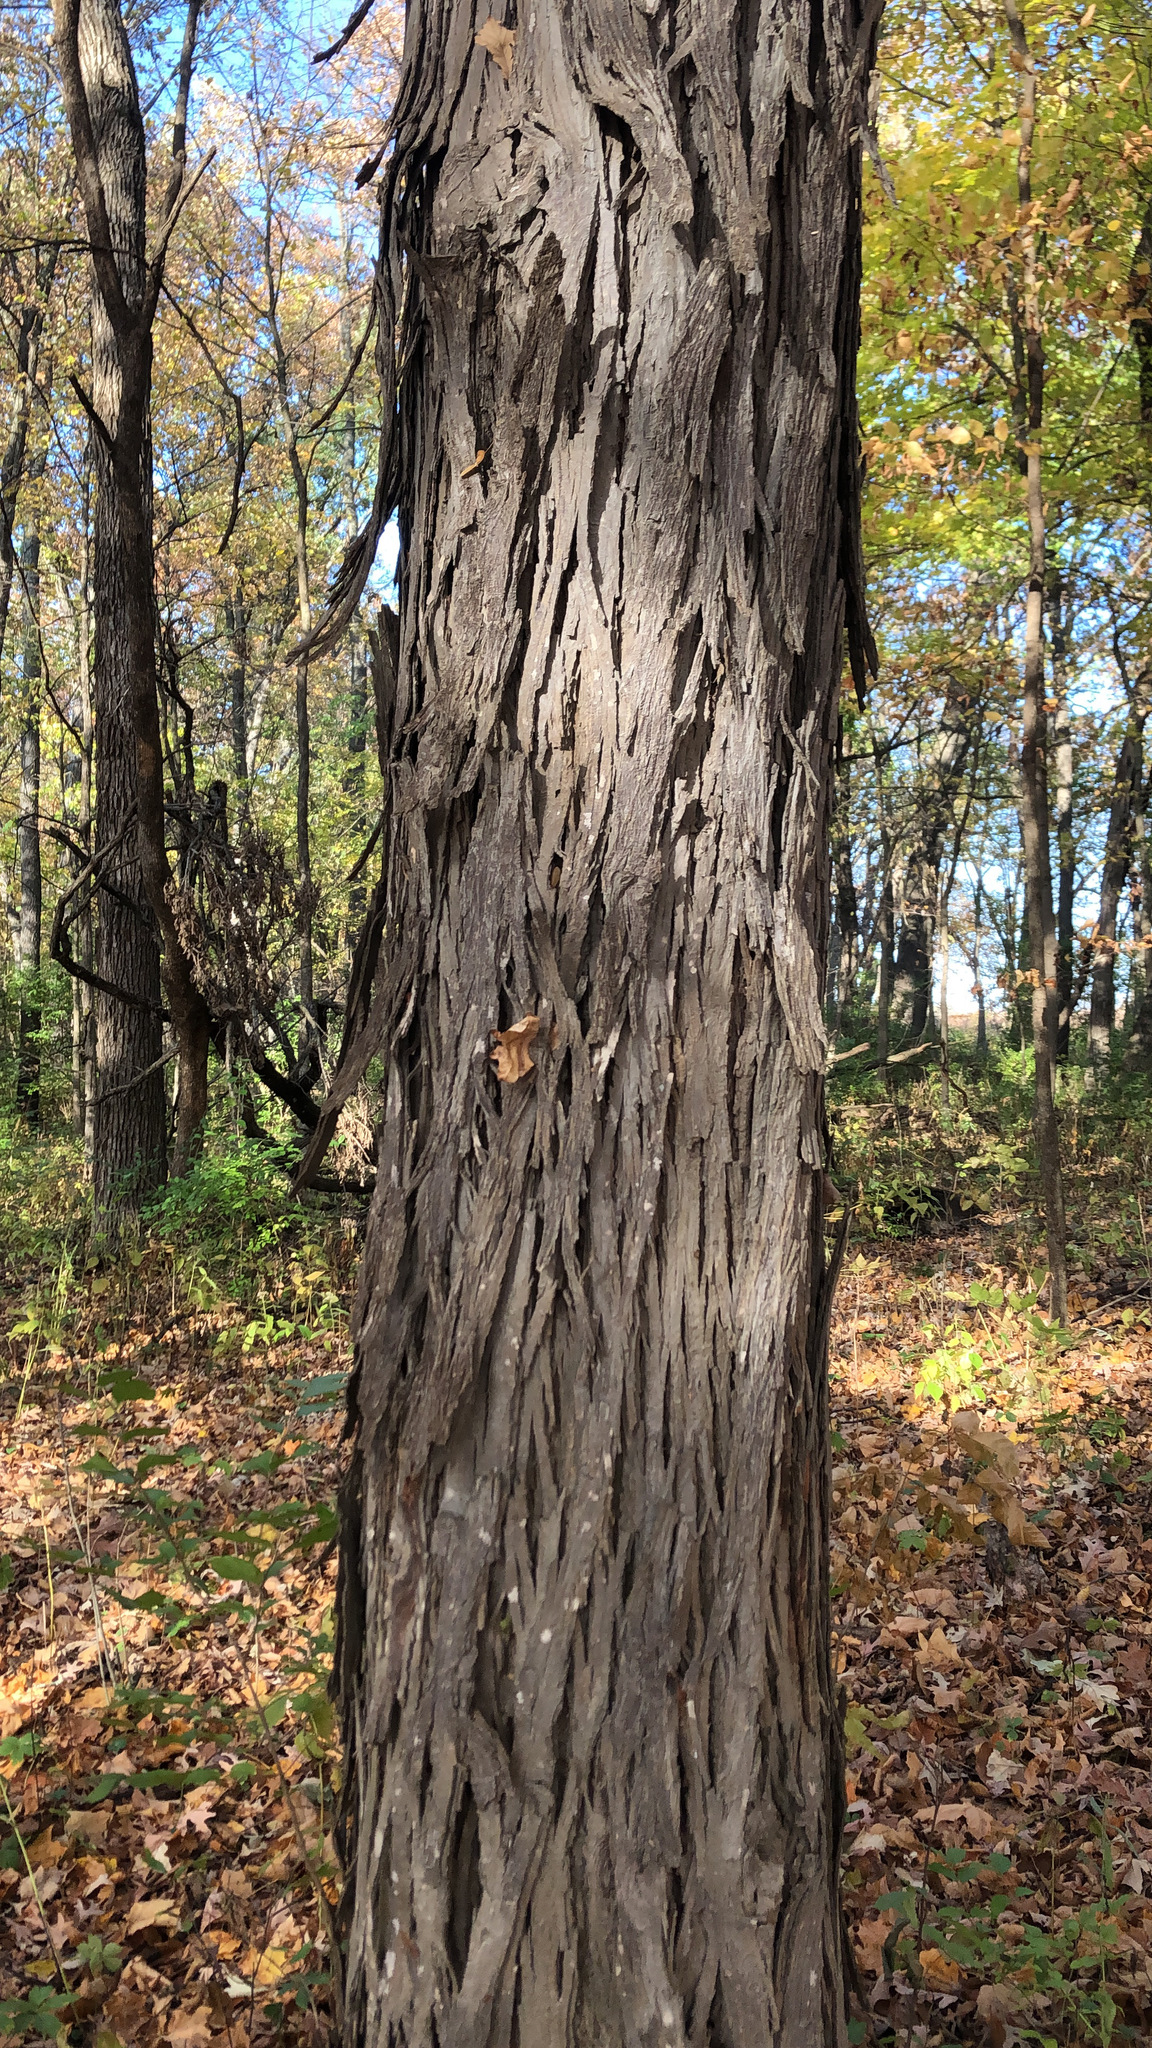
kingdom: Plantae
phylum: Tracheophyta
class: Magnoliopsida
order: Fagales
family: Juglandaceae
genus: Carya
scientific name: Carya ovata
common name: Shagbark hickory
